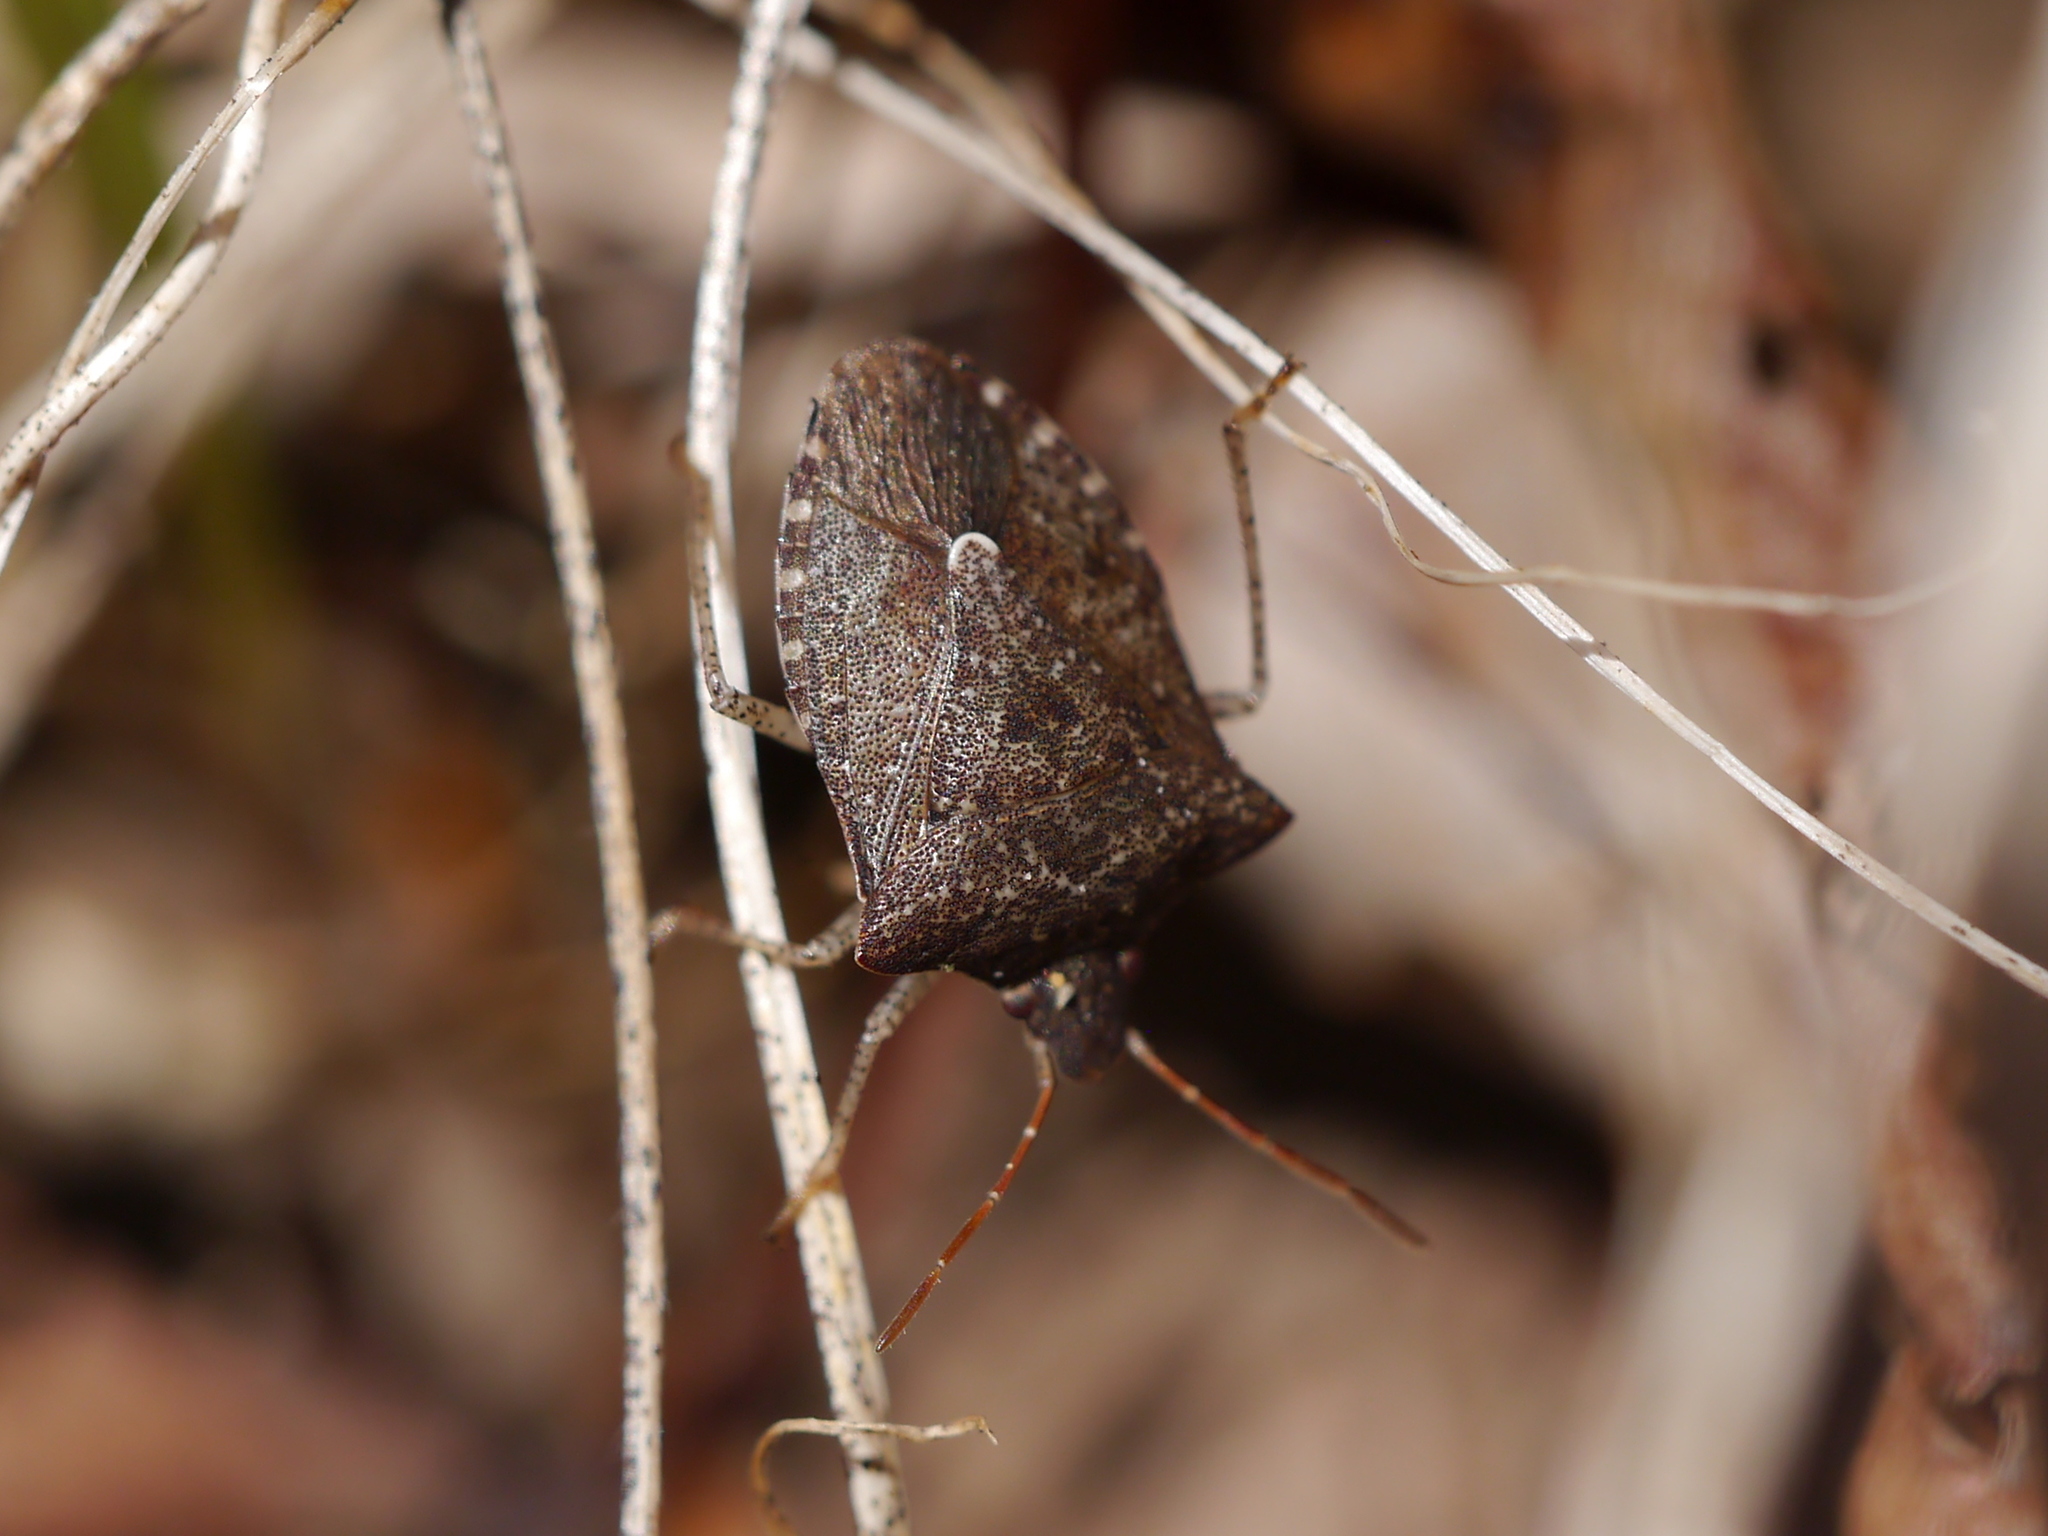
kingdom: Animalia
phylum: Arthropoda
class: Insecta
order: Hemiptera
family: Pentatomidae
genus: Euschistus
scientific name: Euschistus tristigmus
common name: Dusky stink bug
